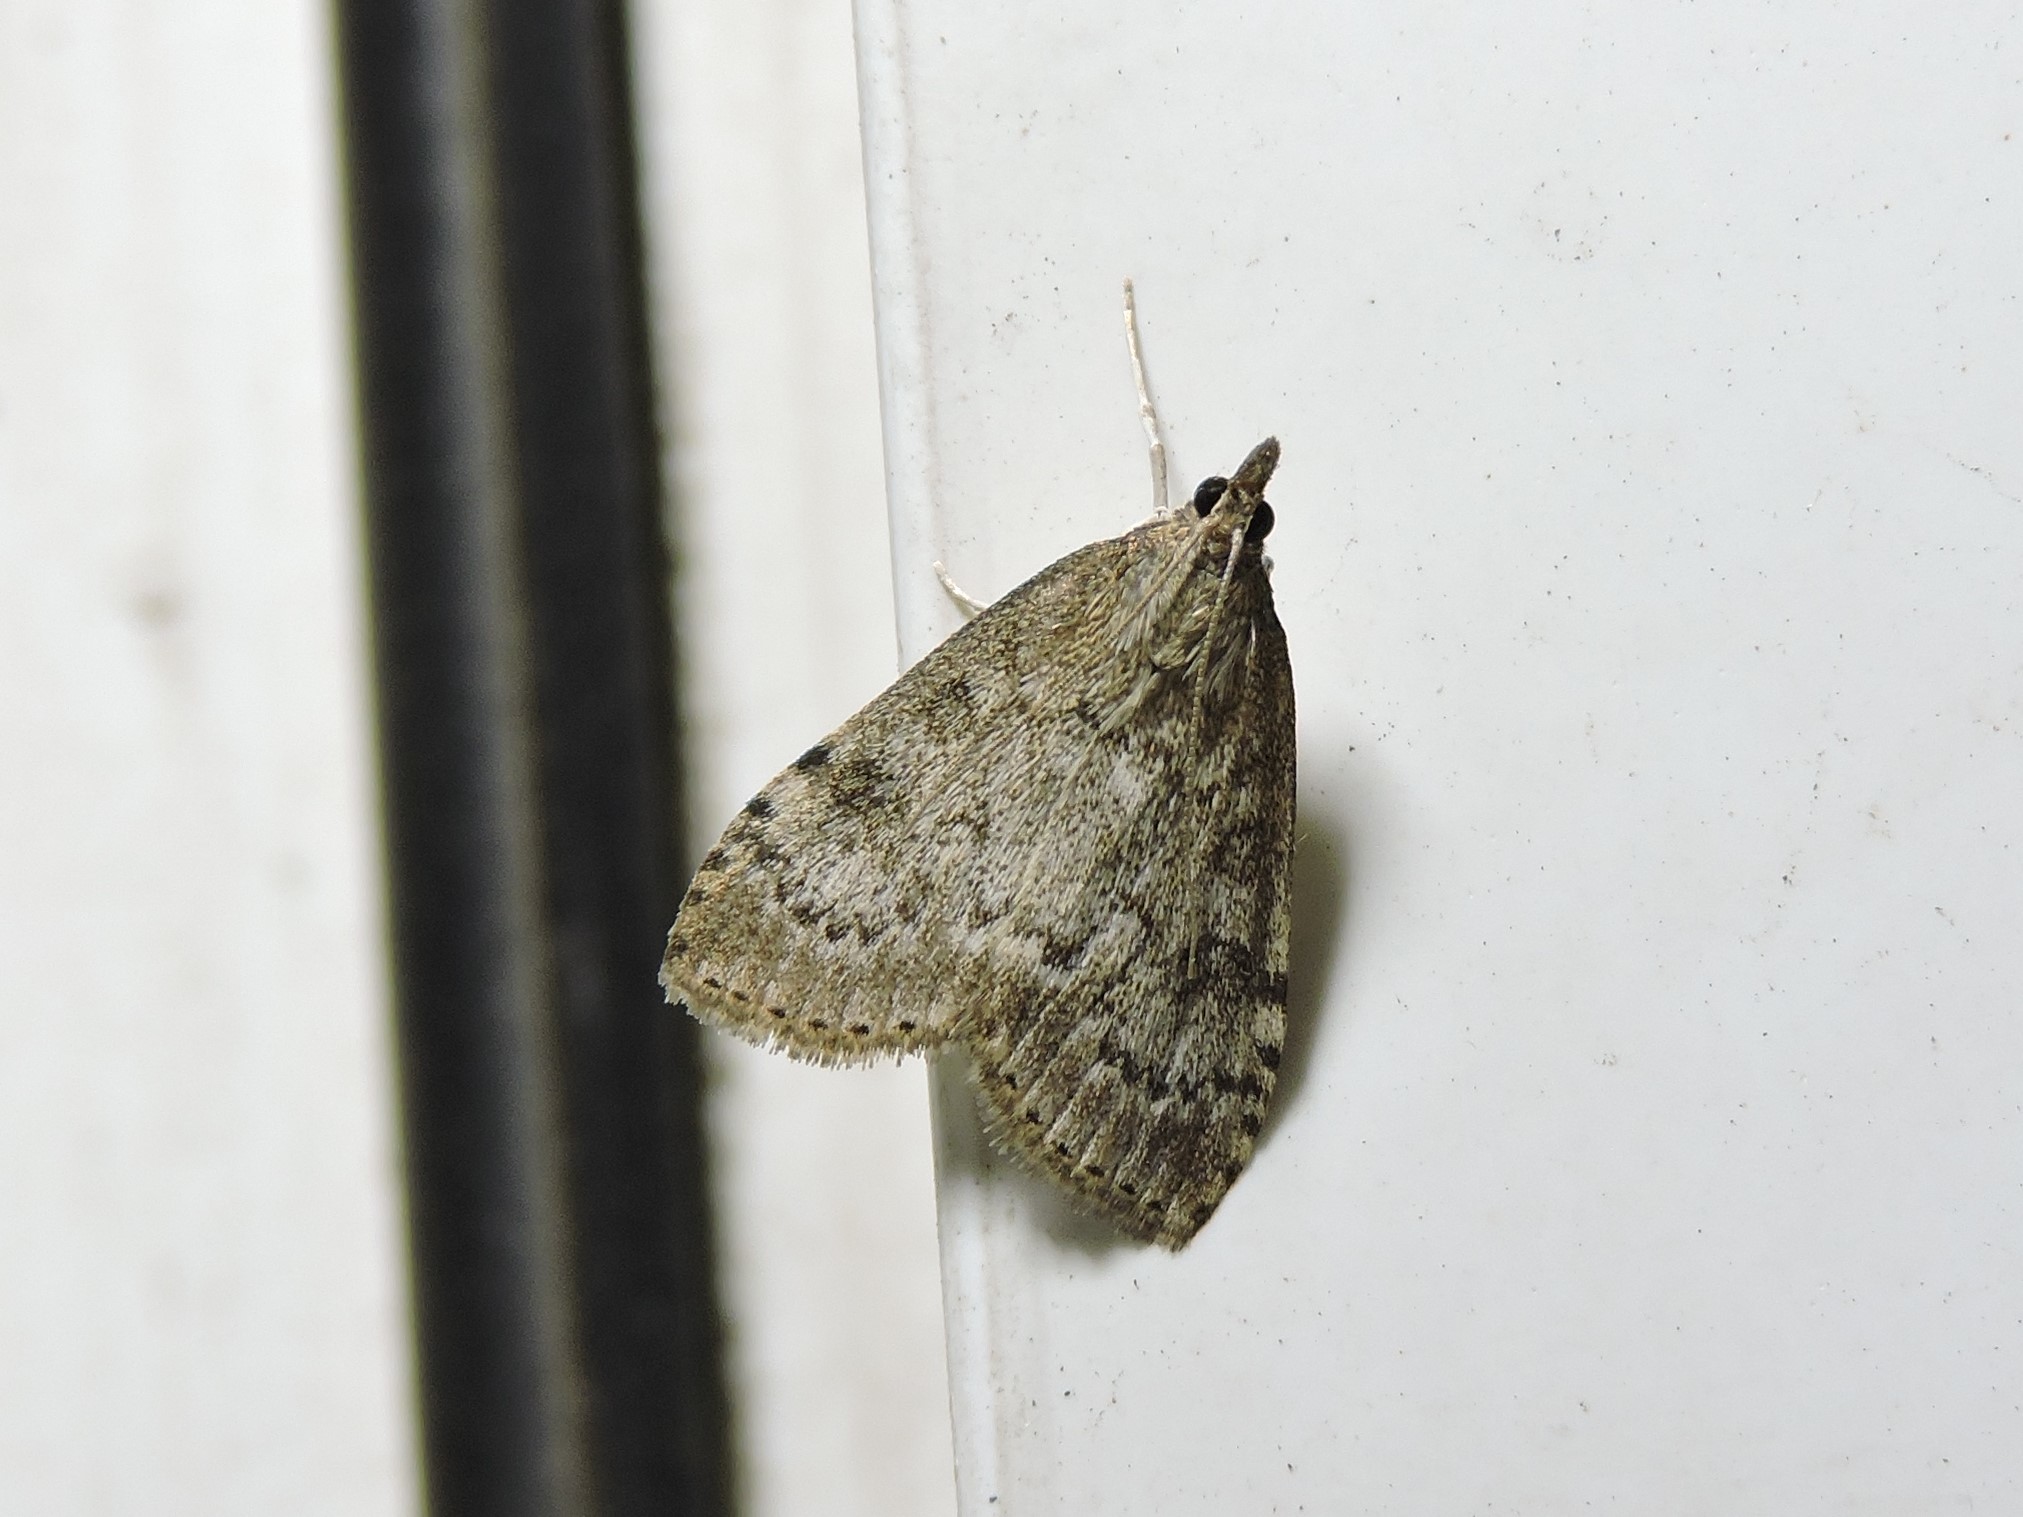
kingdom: Animalia
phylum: Arthropoda
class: Insecta
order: Lepidoptera
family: Crambidae
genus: Udea
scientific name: Udea prunalis
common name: Dusky pearl
